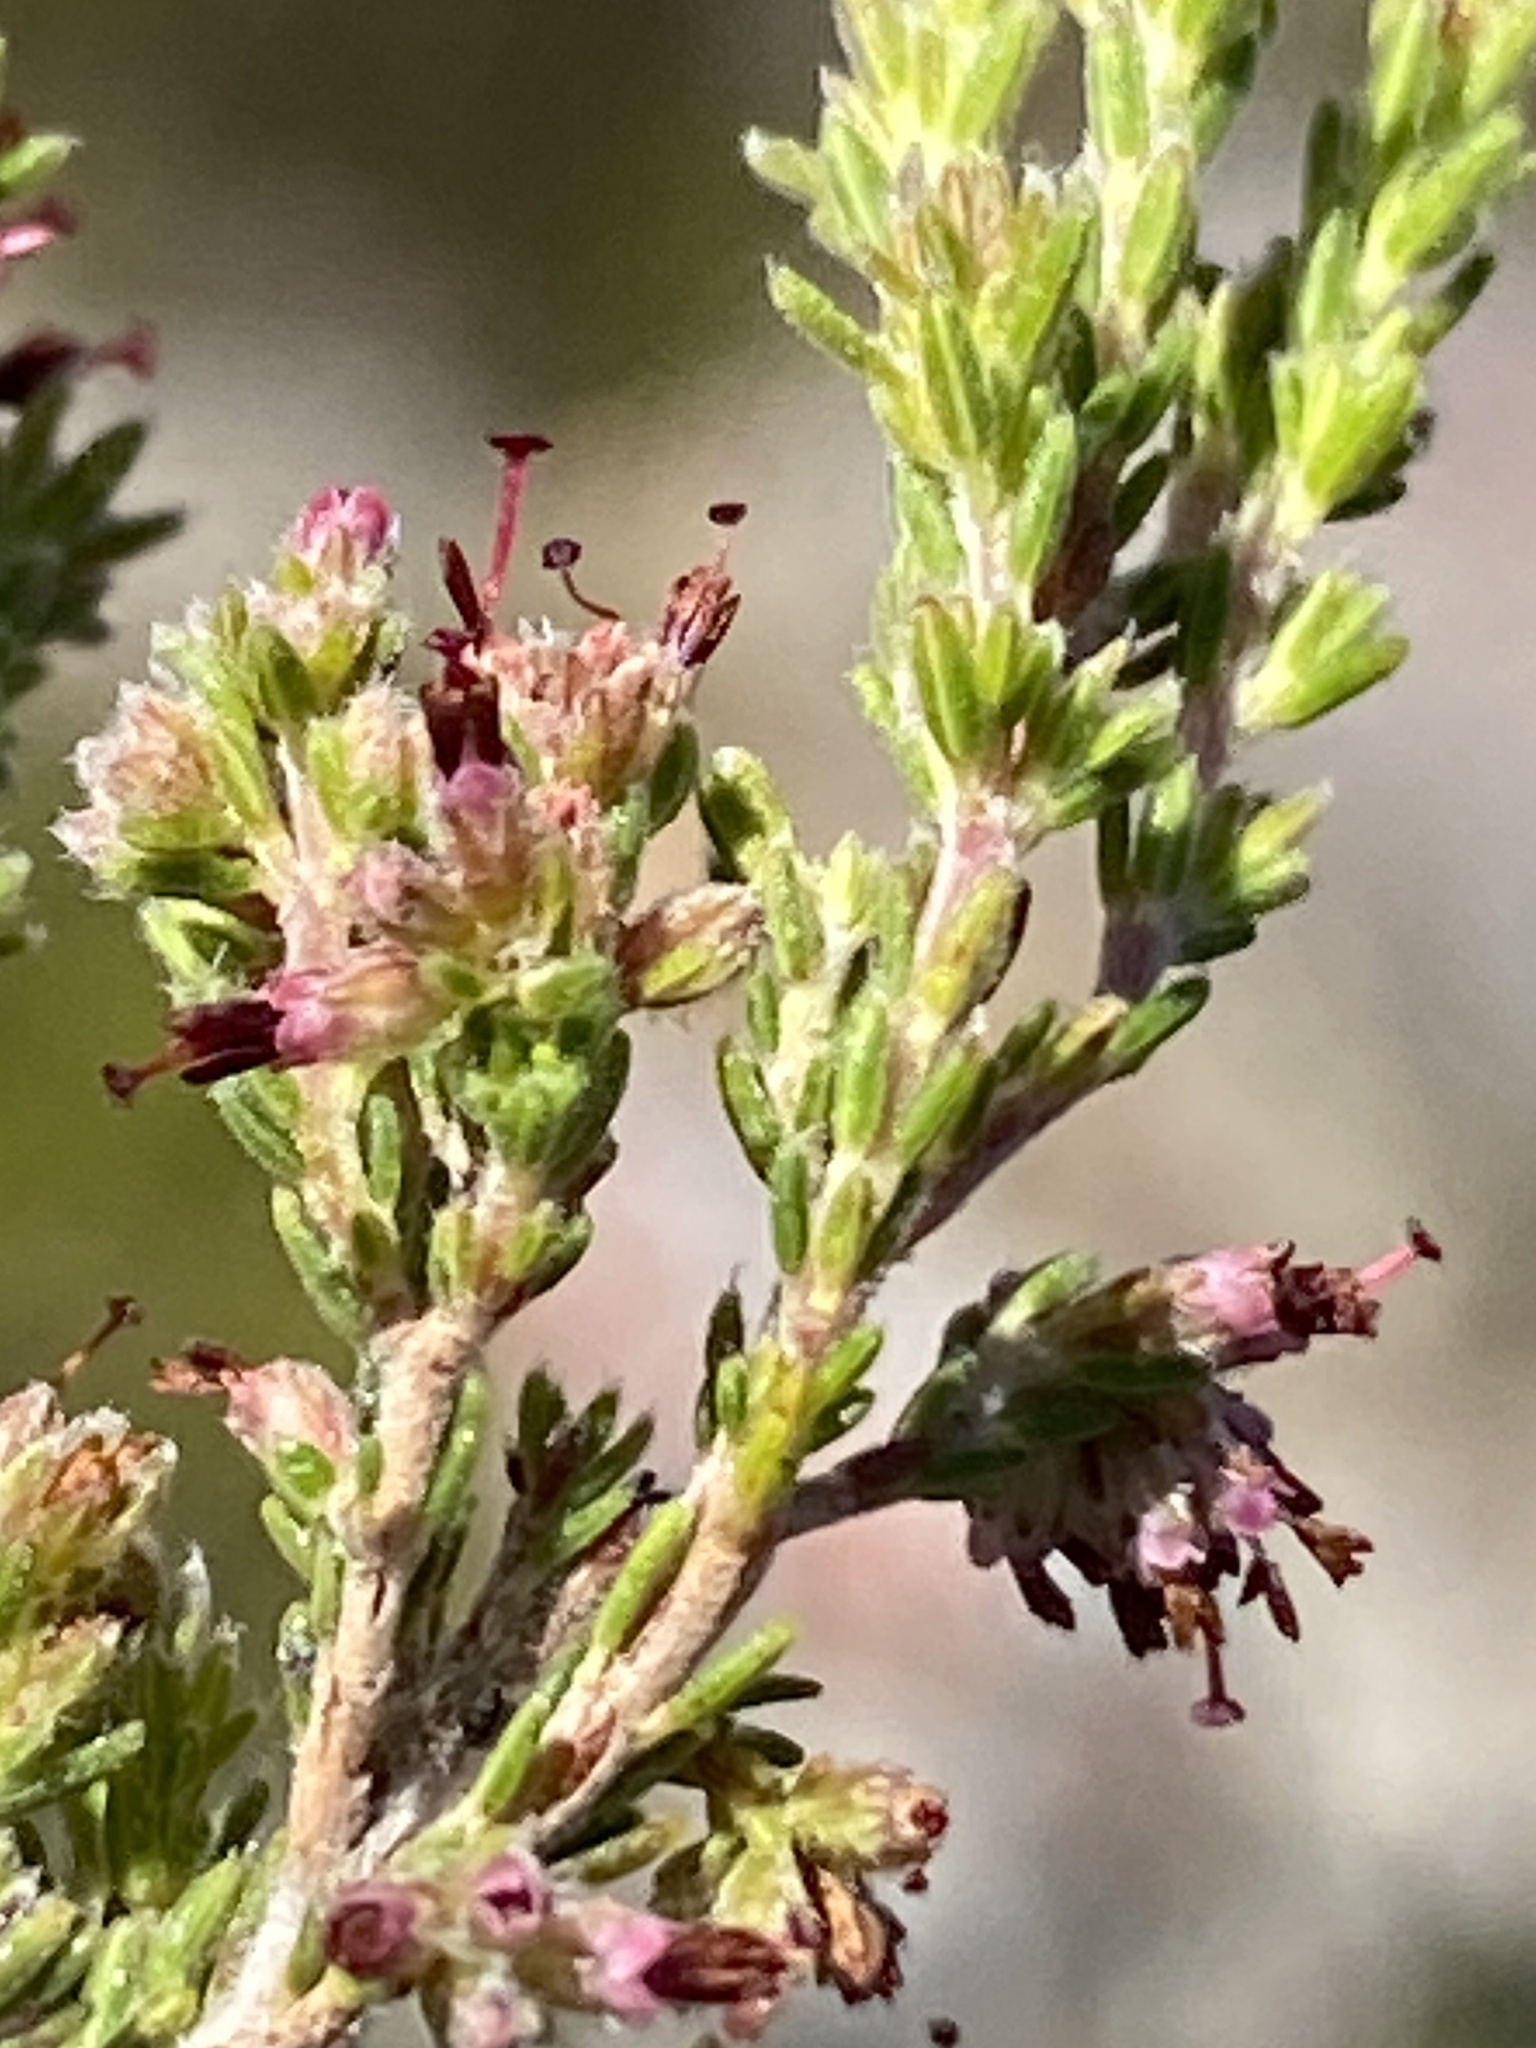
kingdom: Plantae
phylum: Tracheophyta
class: Magnoliopsida
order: Ericales
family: Ericaceae
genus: Erica
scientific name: Erica angulosa
